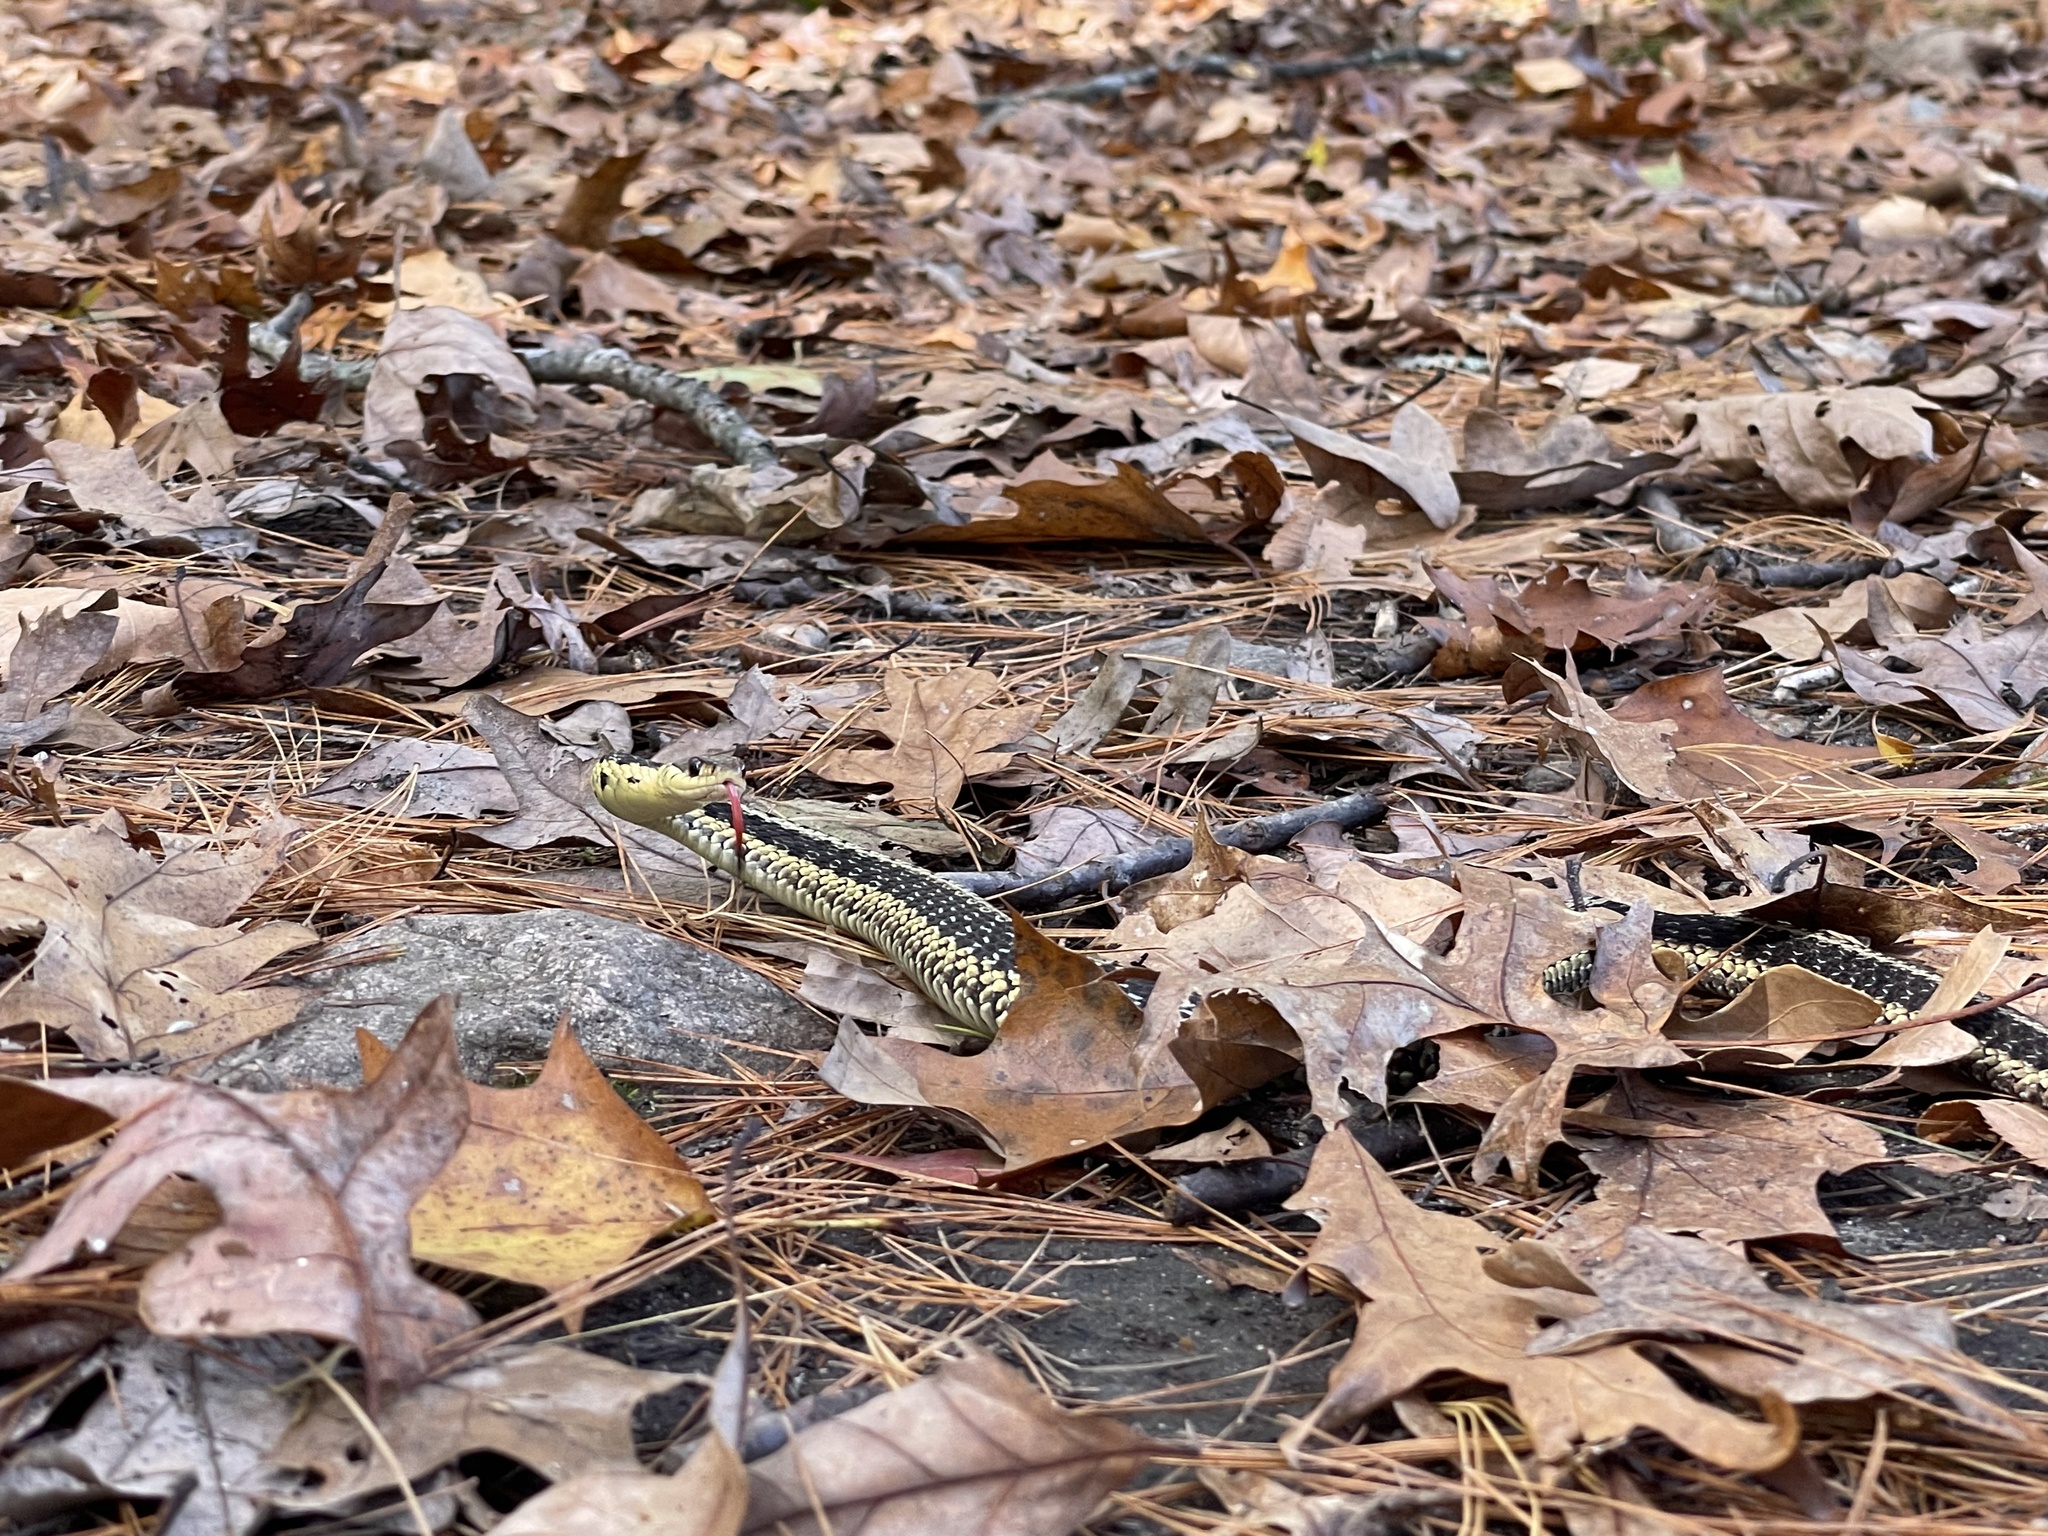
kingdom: Animalia
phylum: Chordata
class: Squamata
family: Colubridae
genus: Thamnophis
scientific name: Thamnophis sirtalis
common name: Common garter snake
